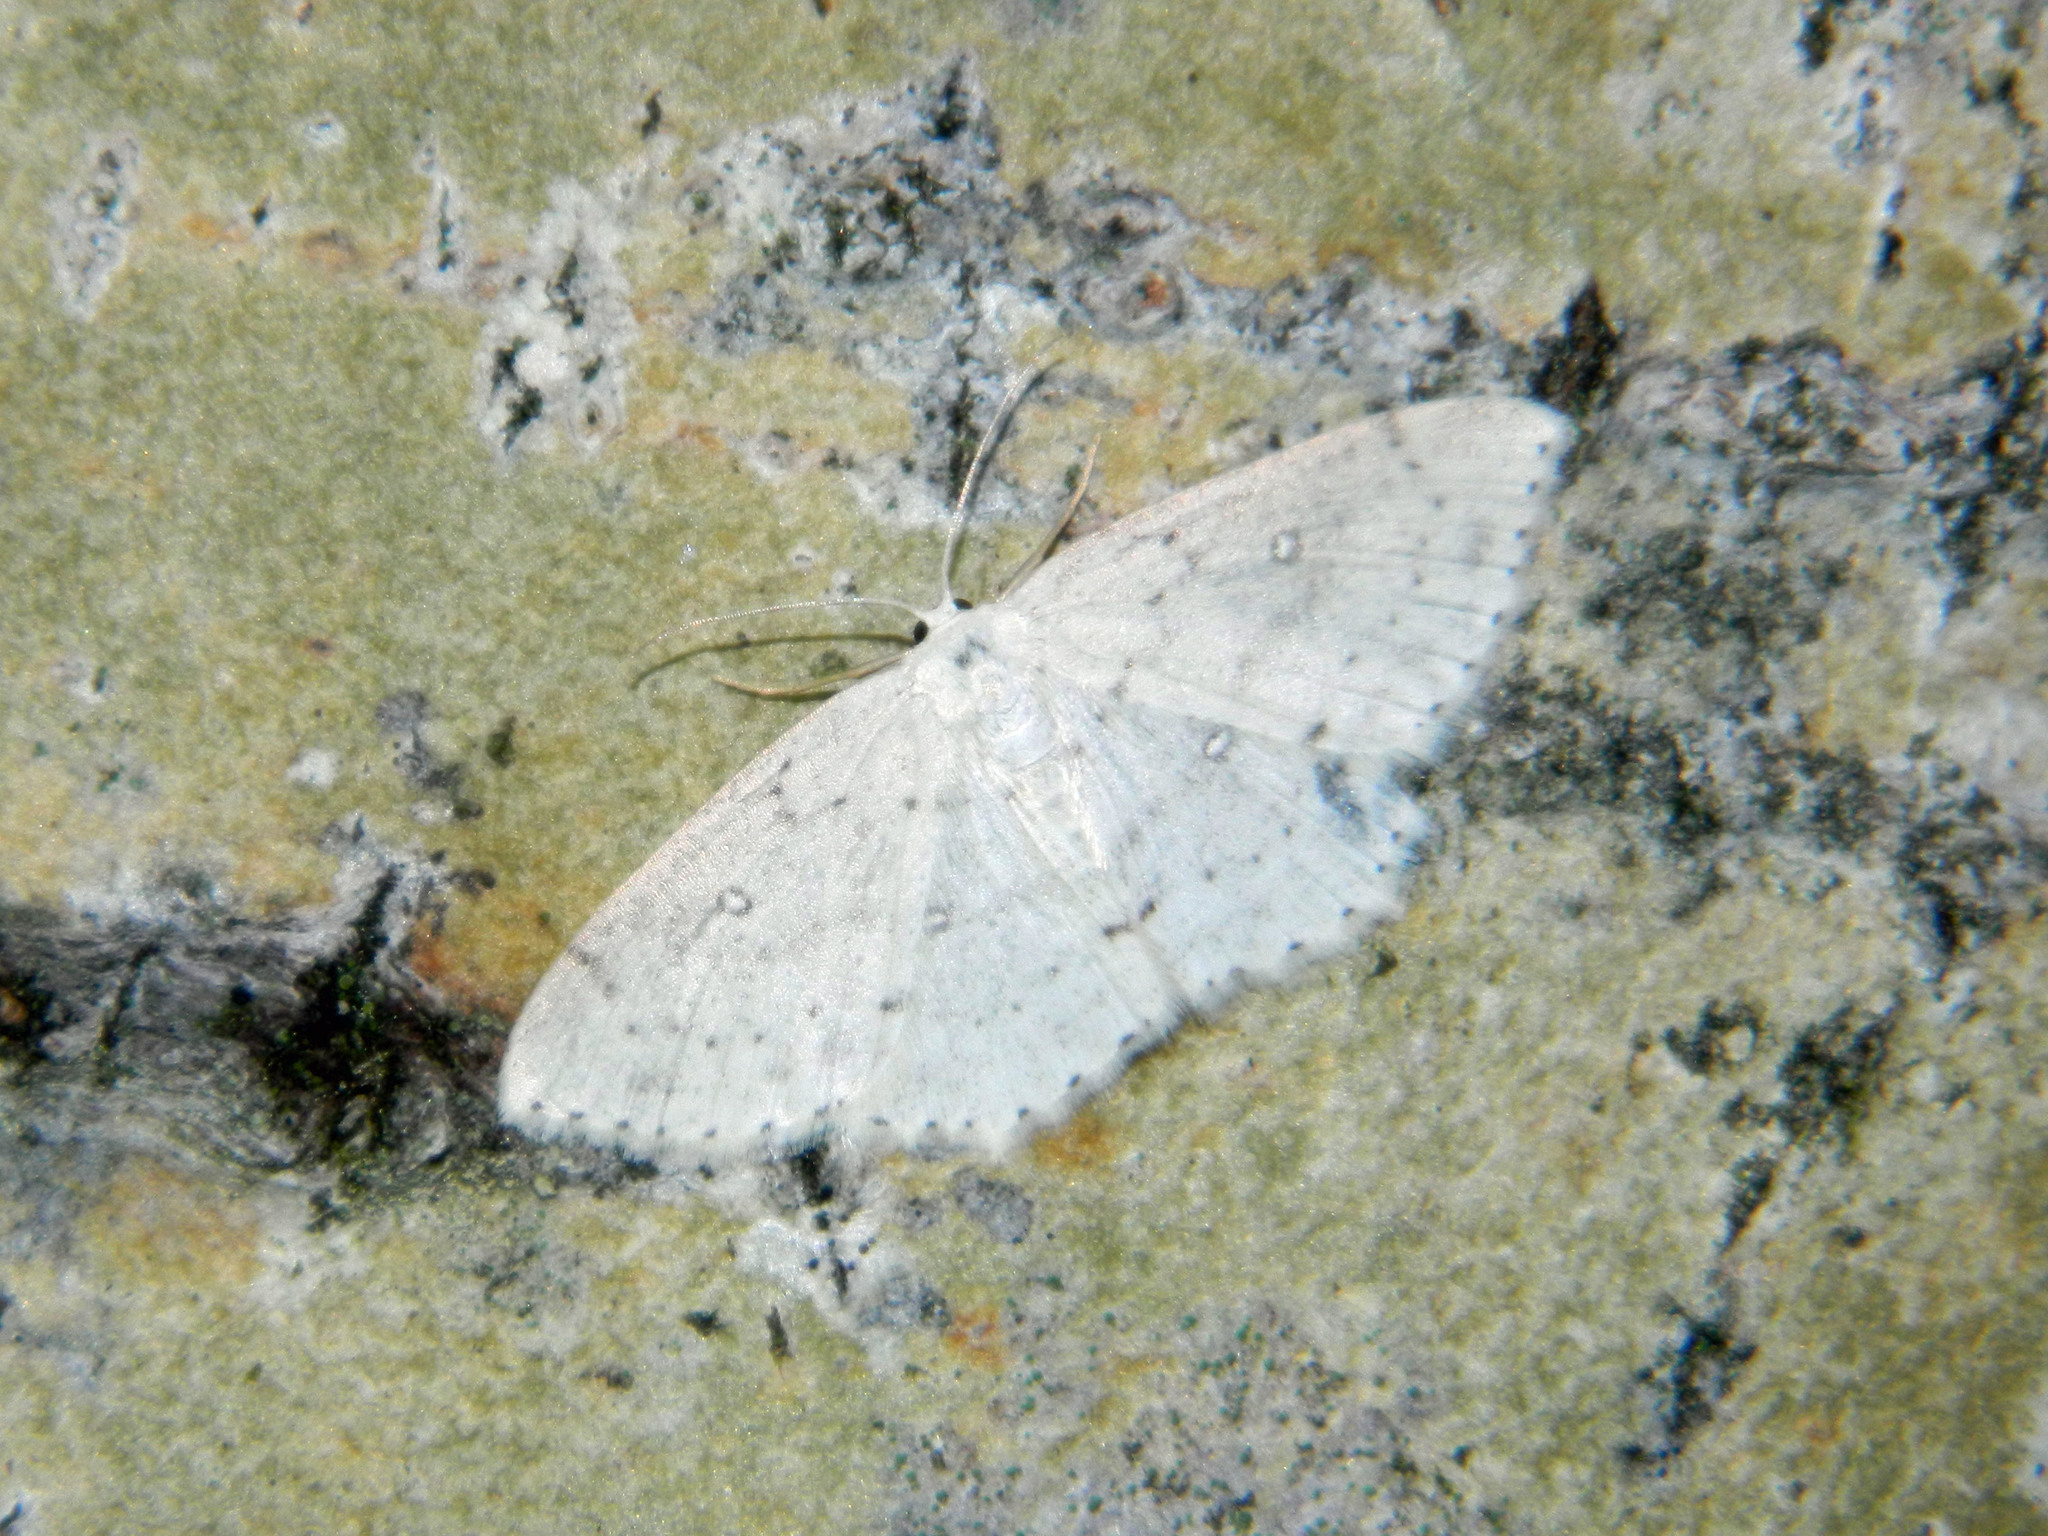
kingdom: Animalia
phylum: Arthropoda
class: Insecta
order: Lepidoptera
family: Geometridae
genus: Cyclophora
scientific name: Cyclophora pendulinaria
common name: Sweet fern geometer
